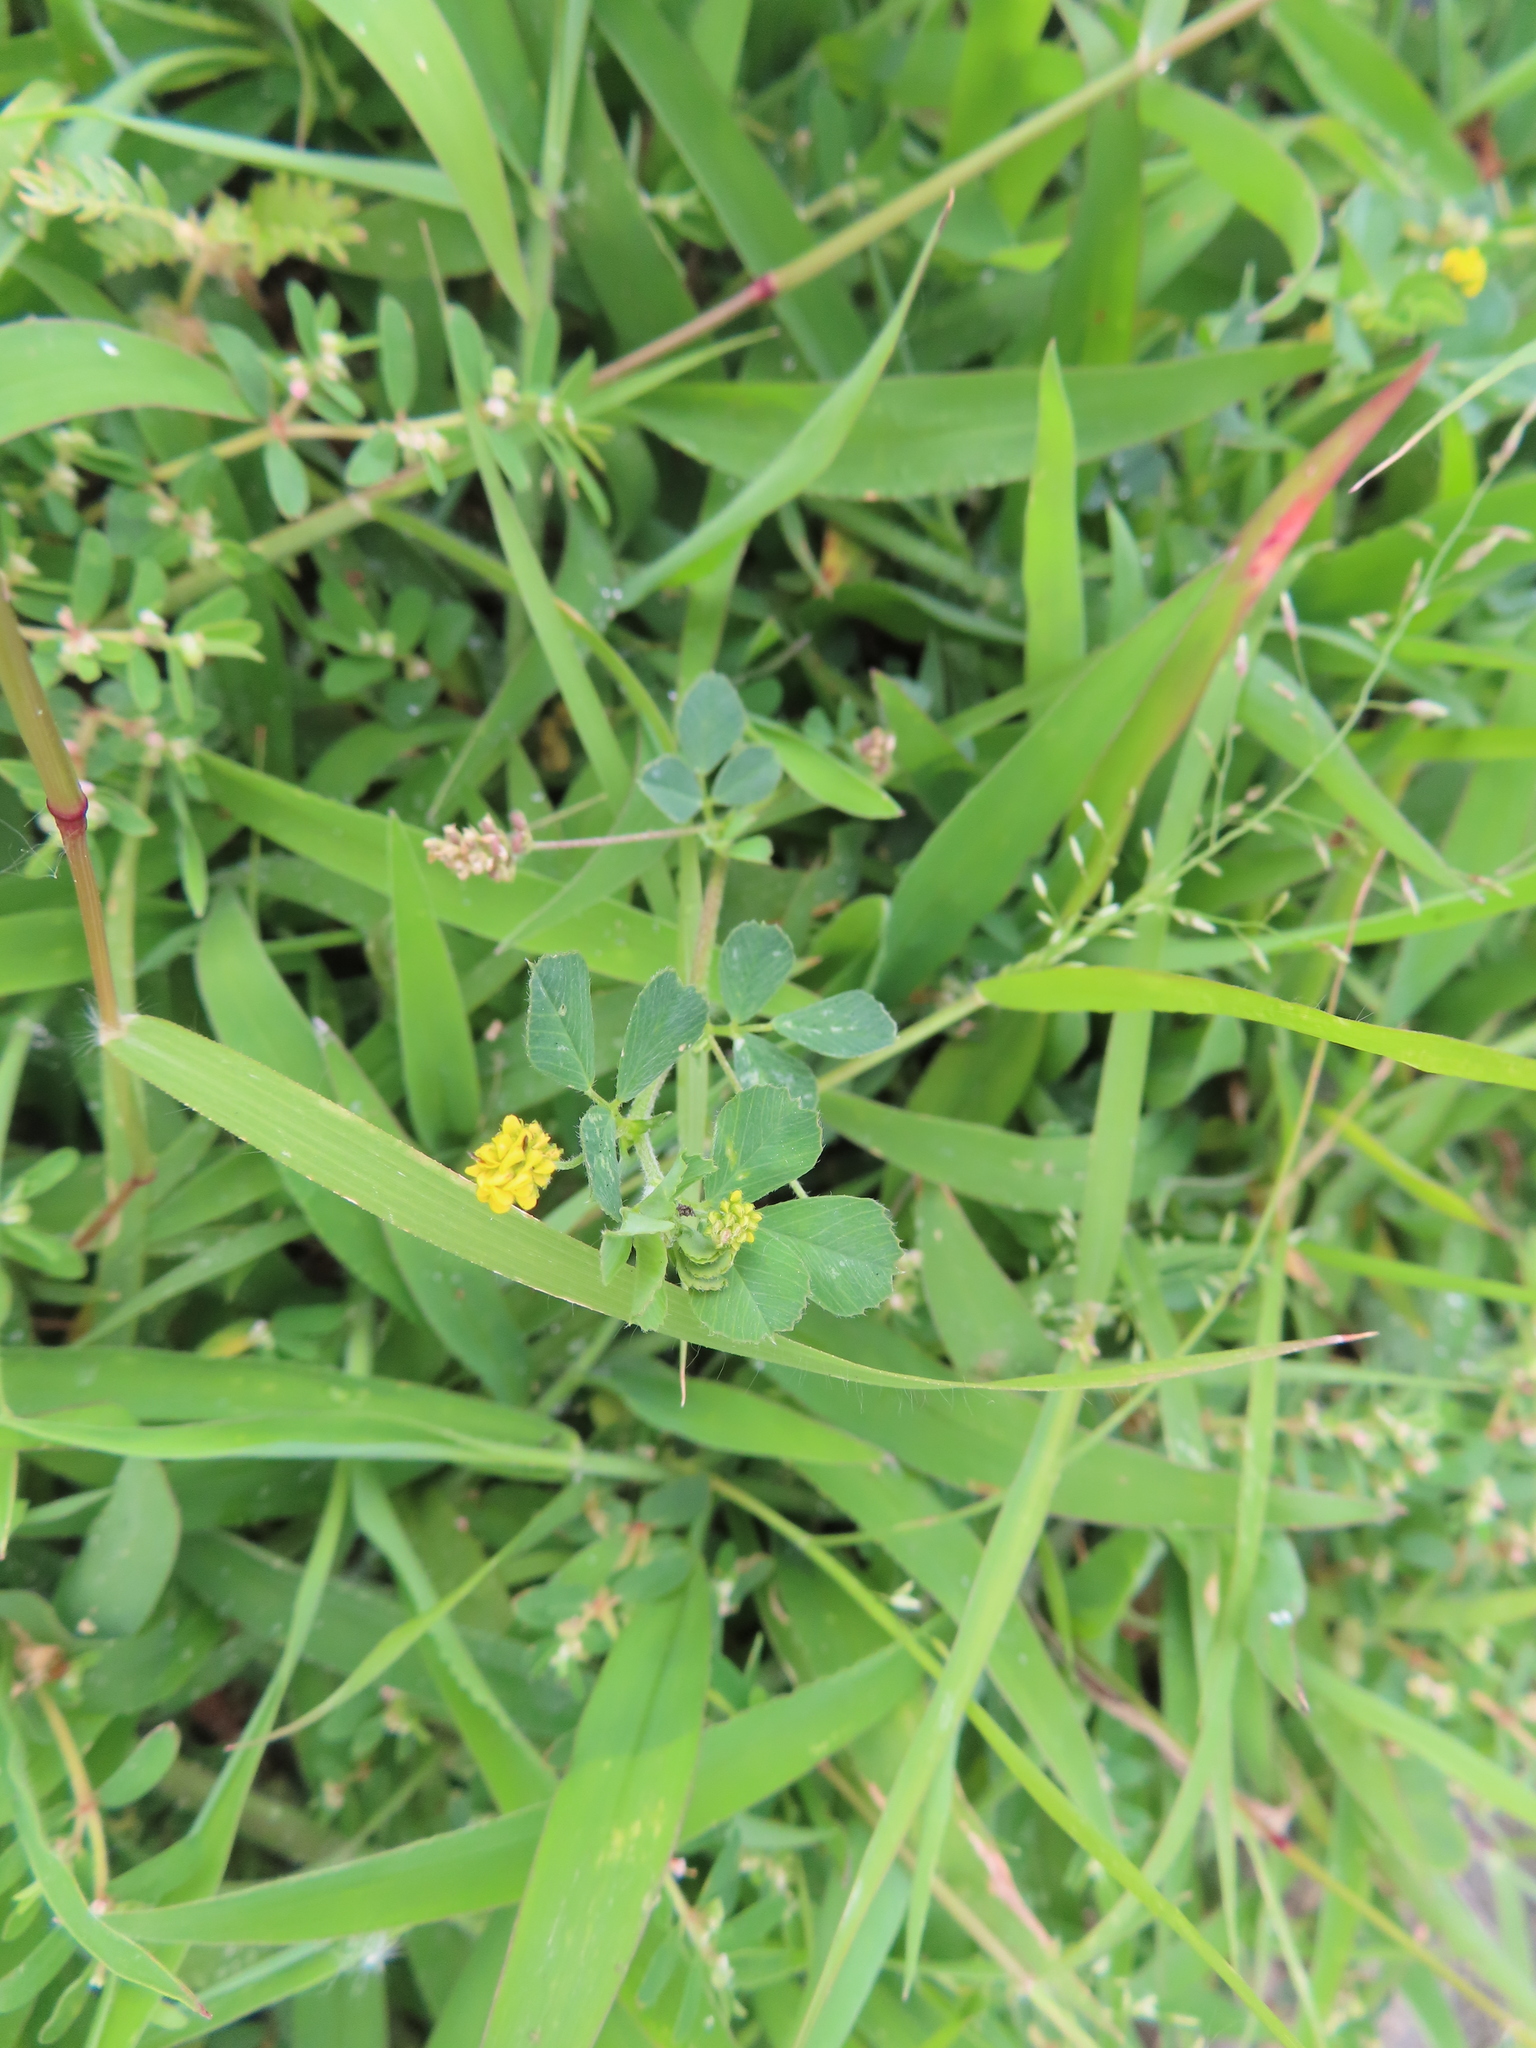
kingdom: Plantae
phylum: Tracheophyta
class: Magnoliopsida
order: Fabales
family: Fabaceae
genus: Medicago
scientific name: Medicago lupulina
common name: Black medick
